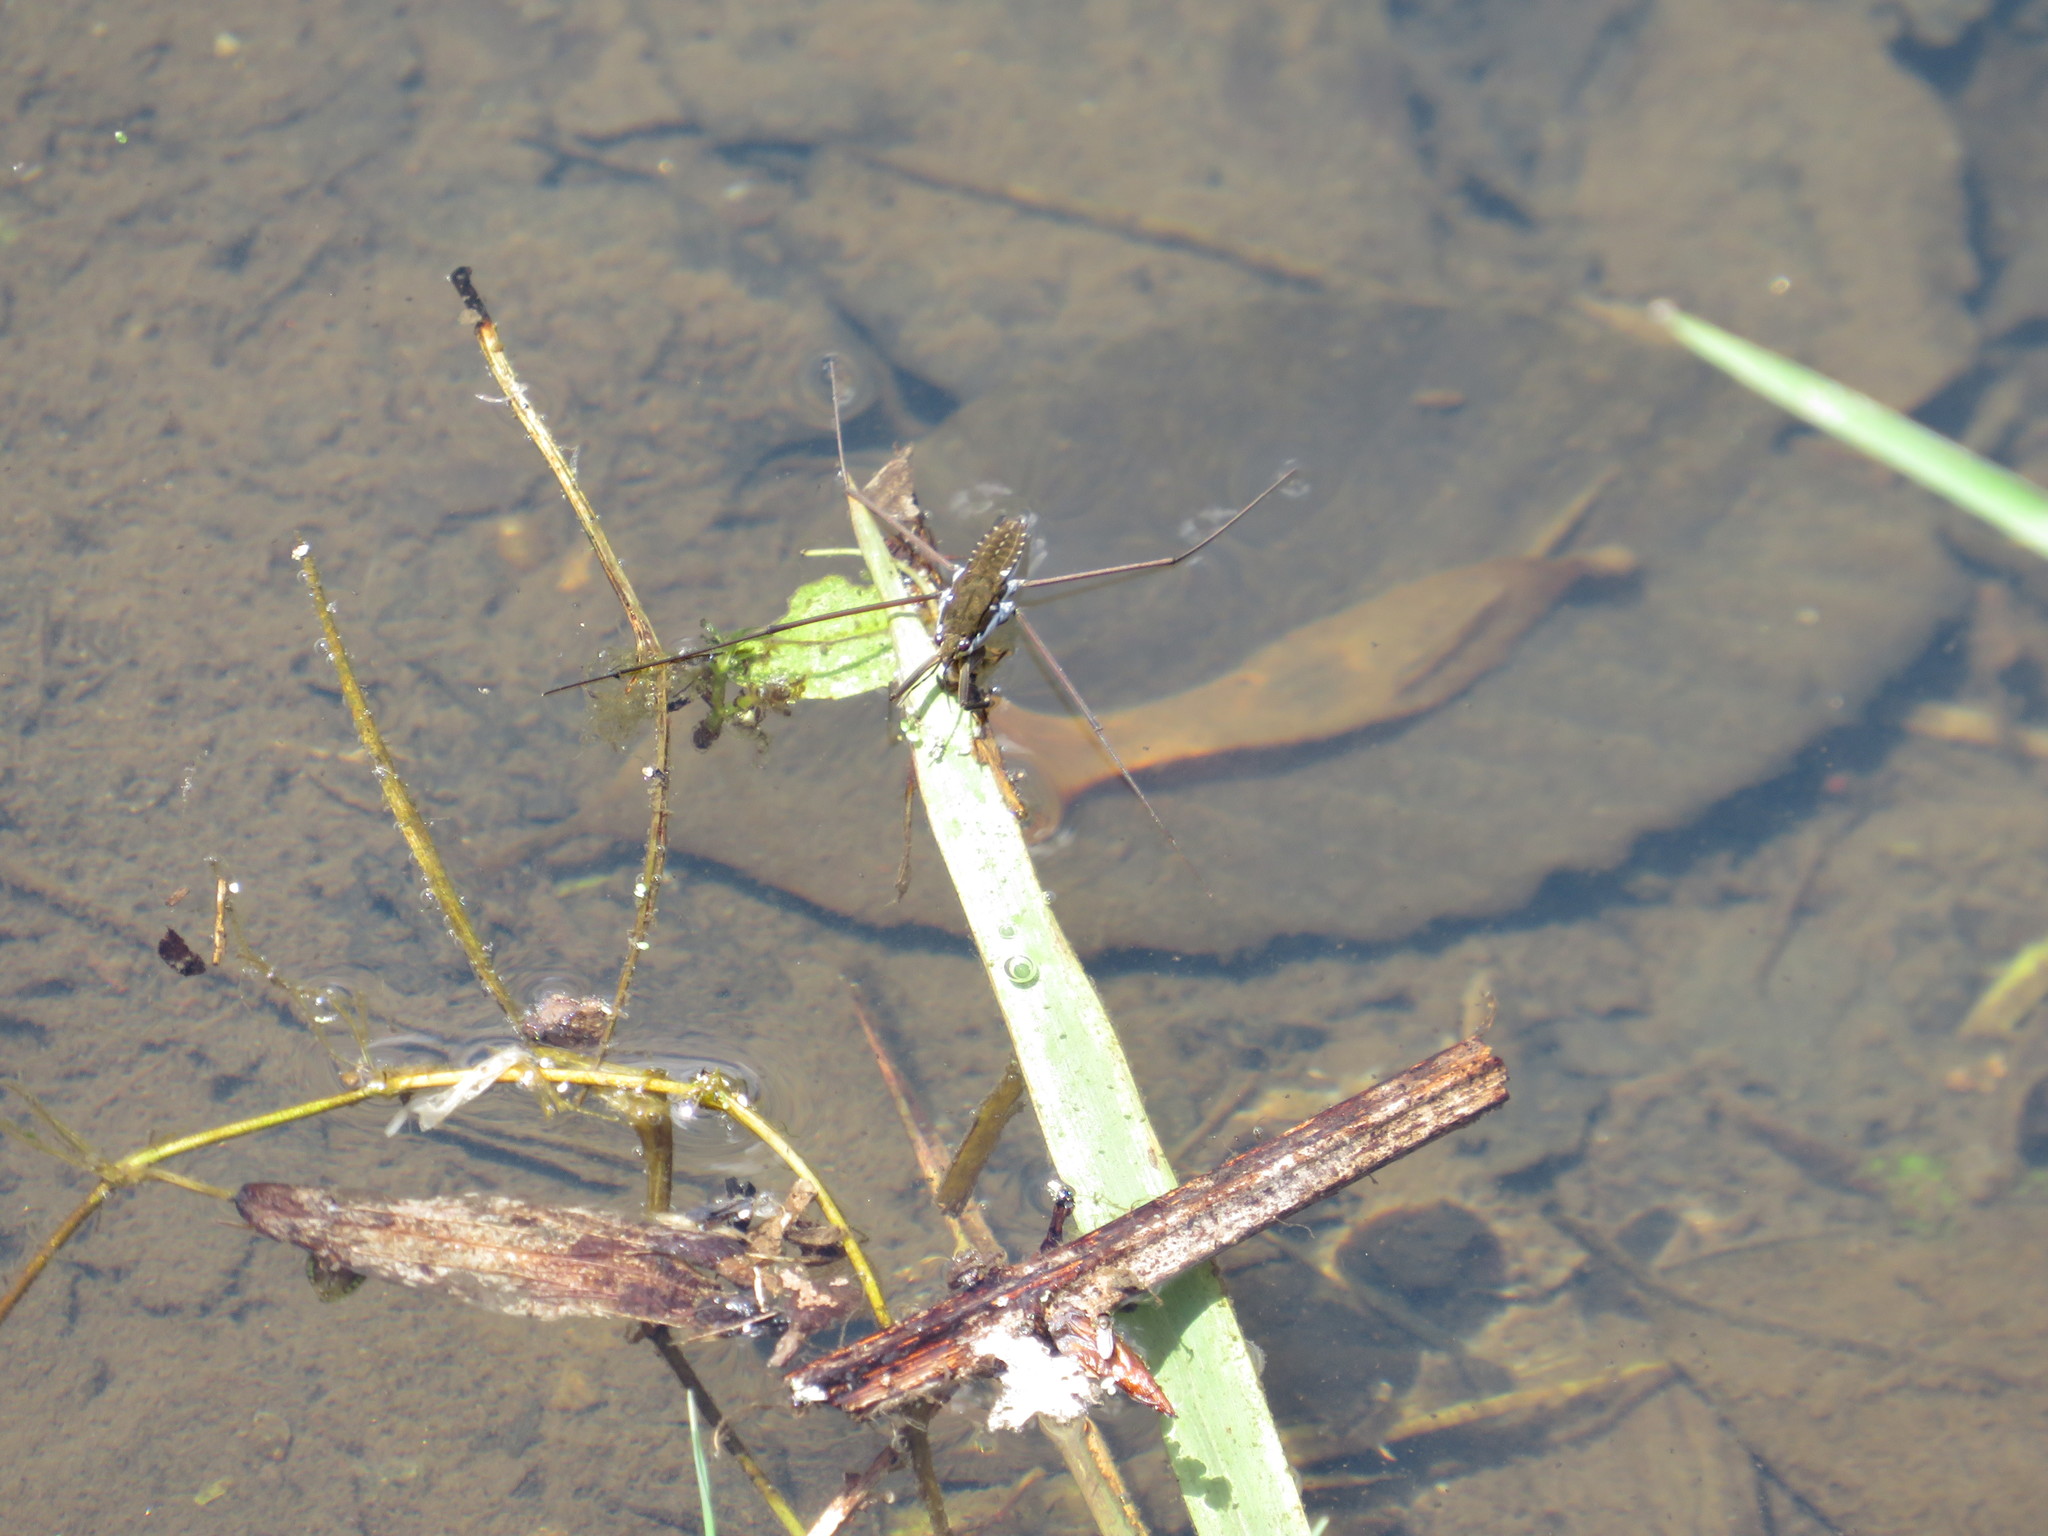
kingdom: Animalia
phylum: Arthropoda
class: Insecta
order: Hemiptera
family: Gerridae
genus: Aquarius
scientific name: Aquarius remigis
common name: Common water strider
